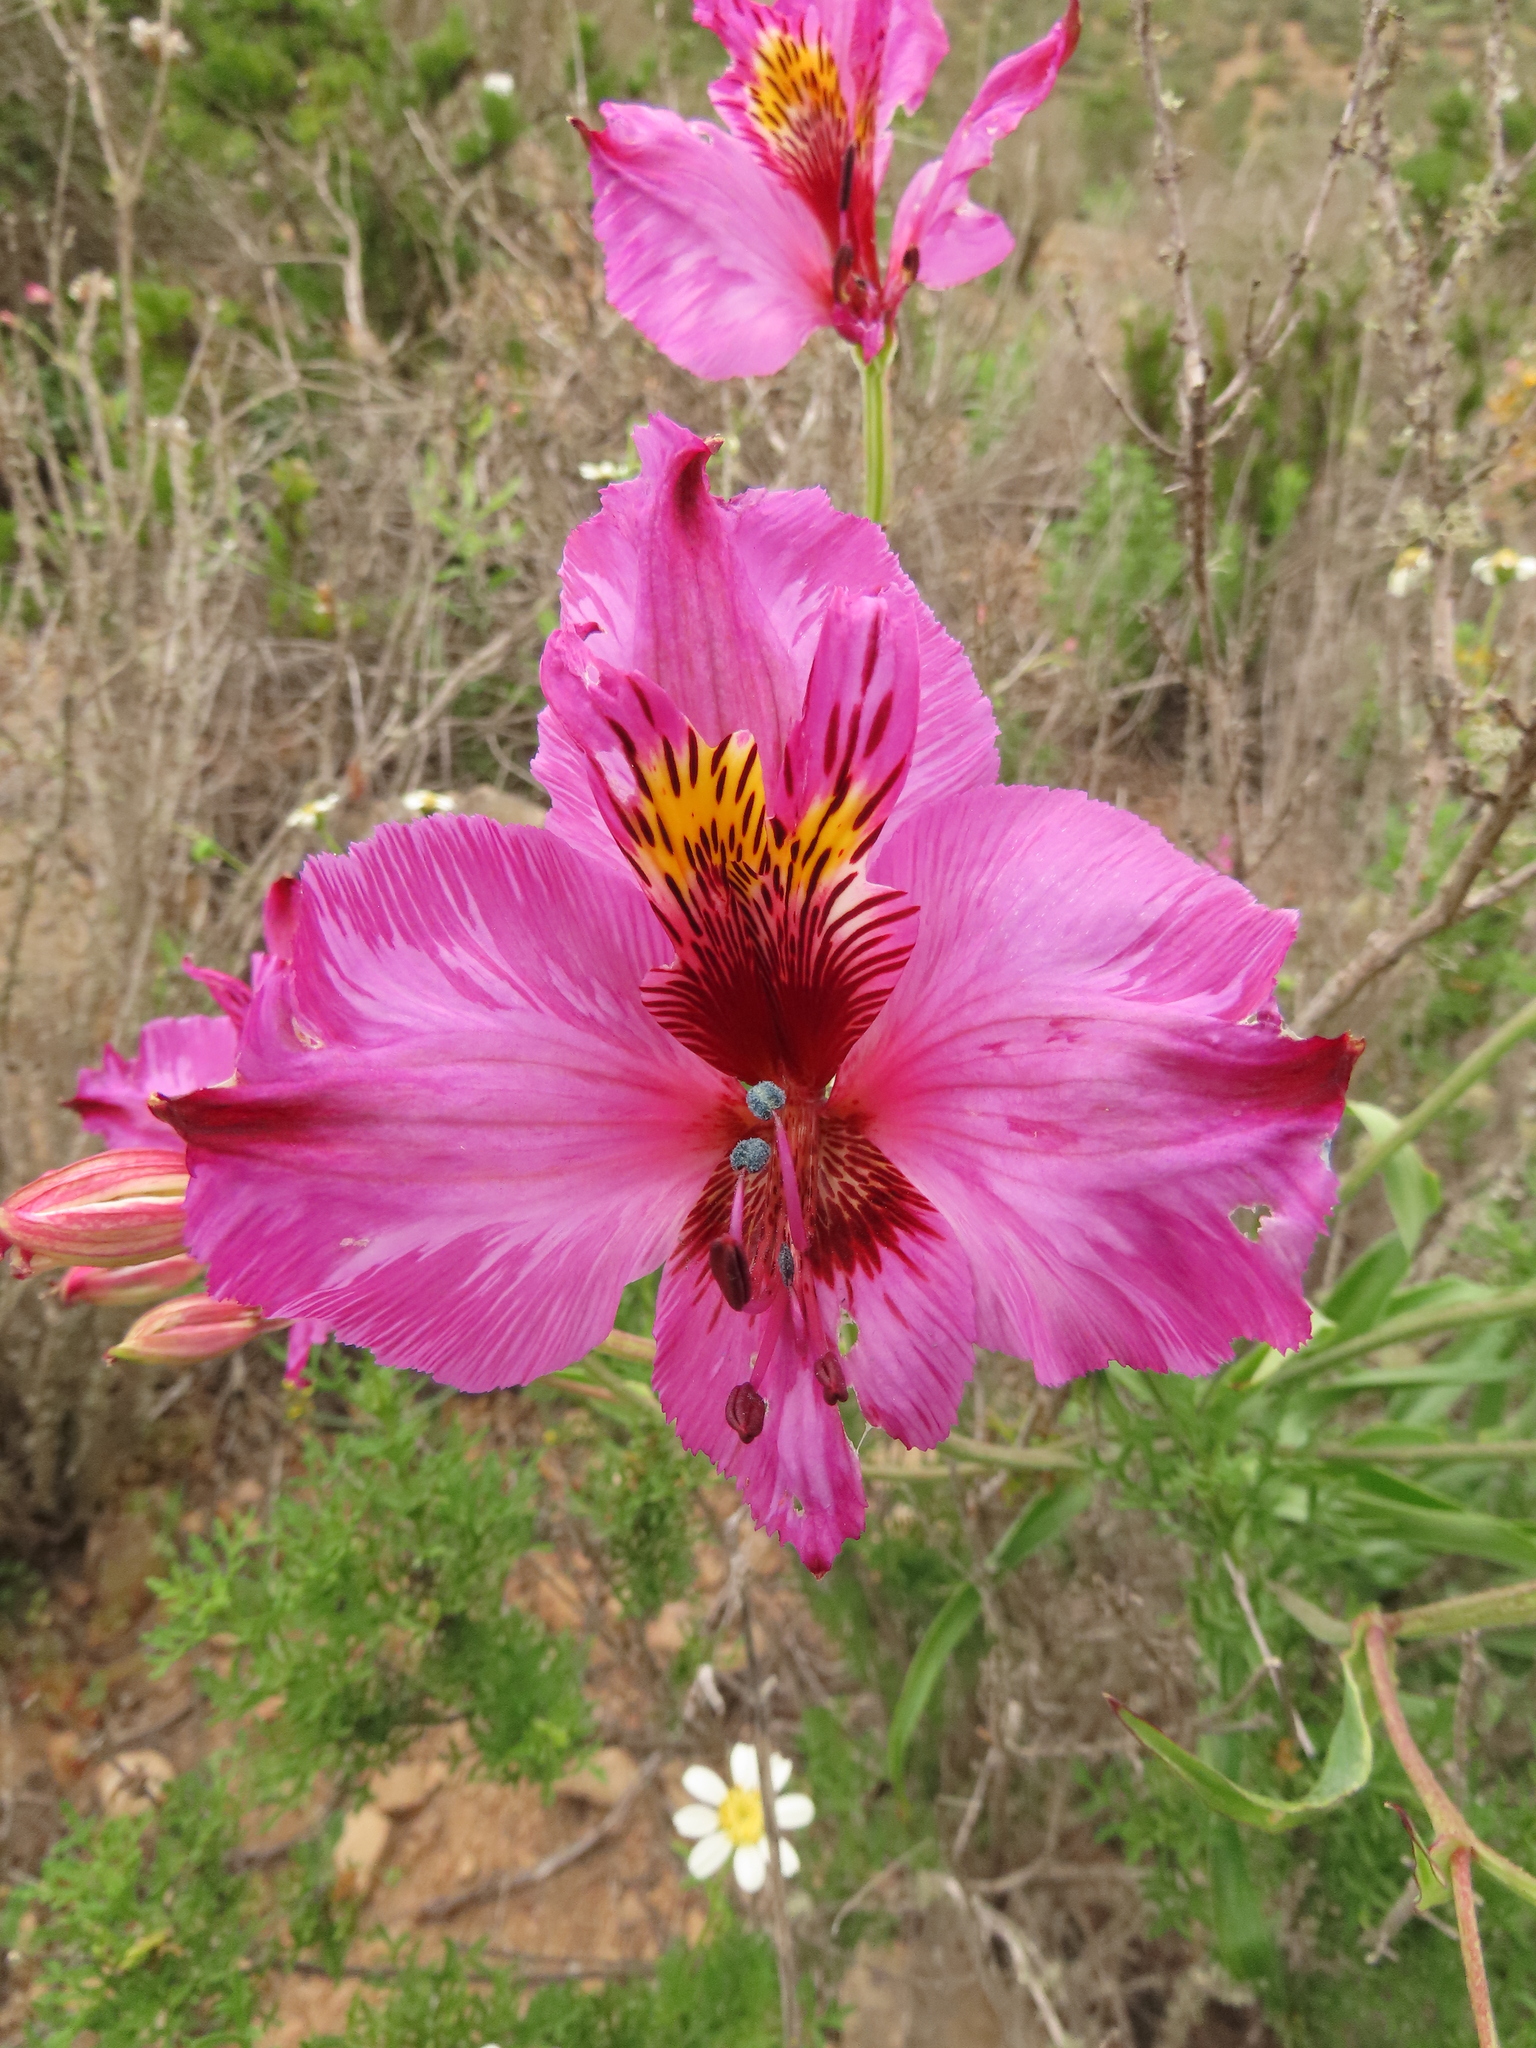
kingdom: Plantae
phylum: Tracheophyta
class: Liliopsida
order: Liliales
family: Alstroemeriaceae
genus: Alstroemeria
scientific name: Alstroemeria magnifica
